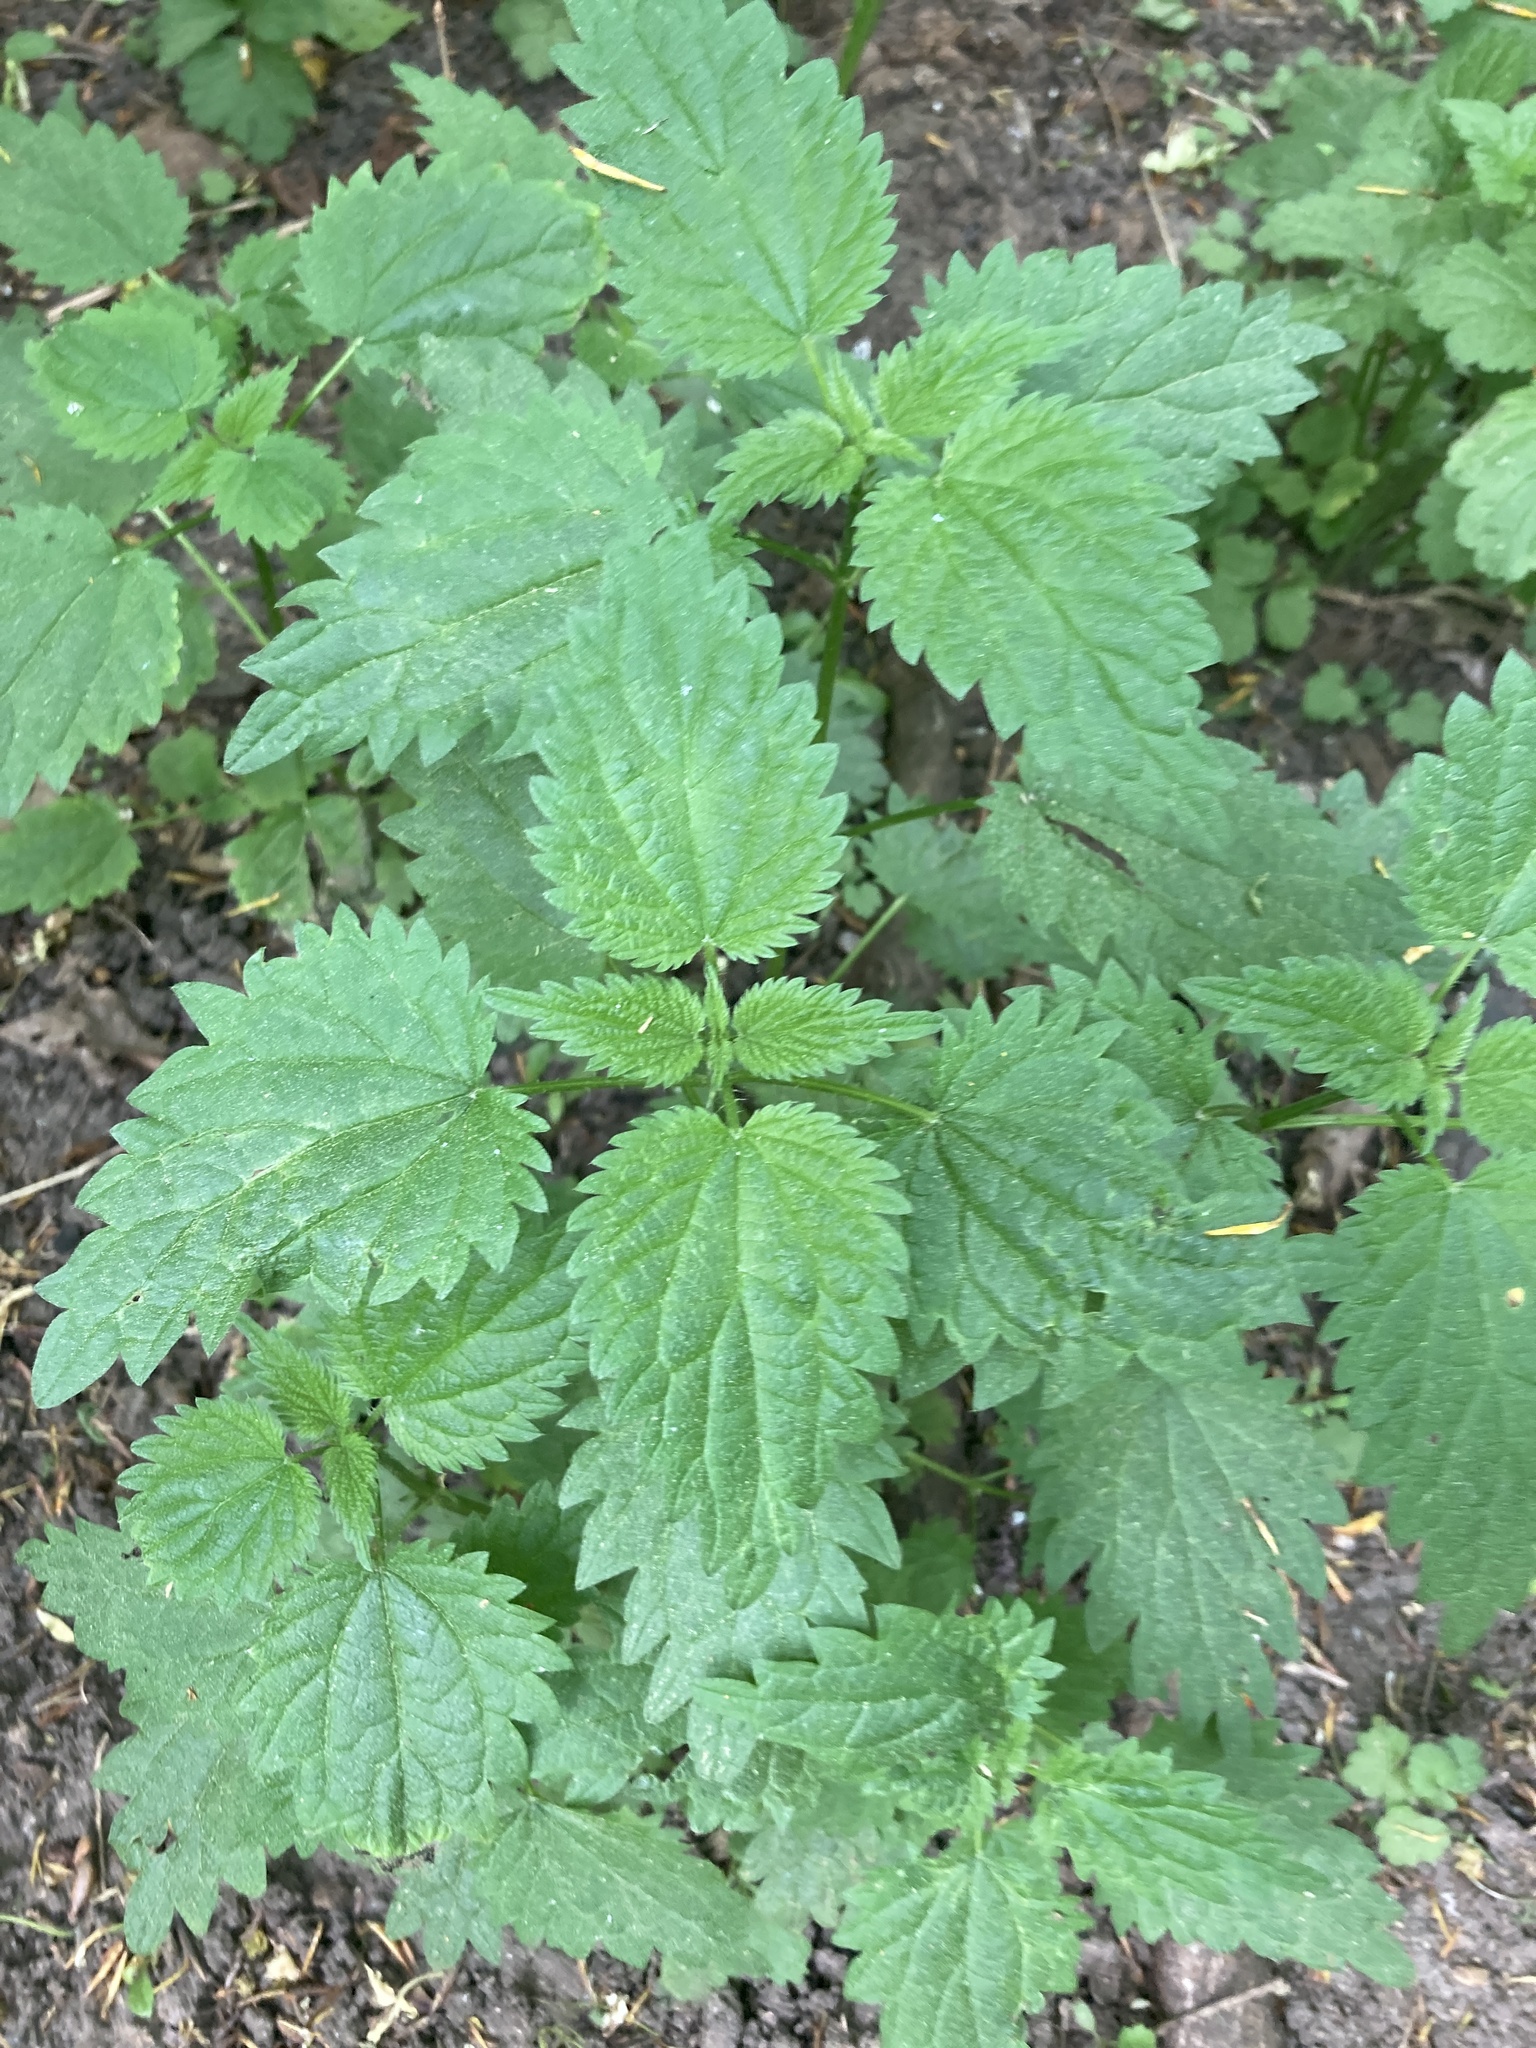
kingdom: Plantae
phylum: Tracheophyta
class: Magnoliopsida
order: Rosales
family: Urticaceae
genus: Urtica
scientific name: Urtica dioica
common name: Common nettle
